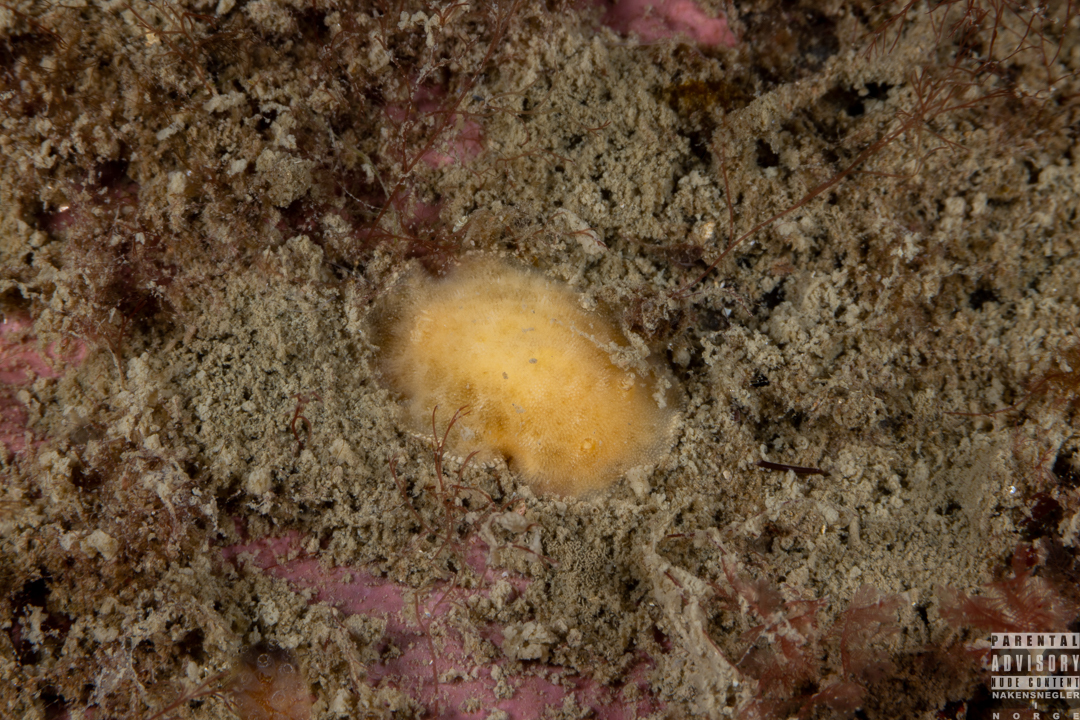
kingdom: Animalia
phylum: Mollusca
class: Gastropoda
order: Nudibranchia
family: Discodorididae
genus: Jorunna
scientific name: Jorunna tomentosa
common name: Grey sea slug
